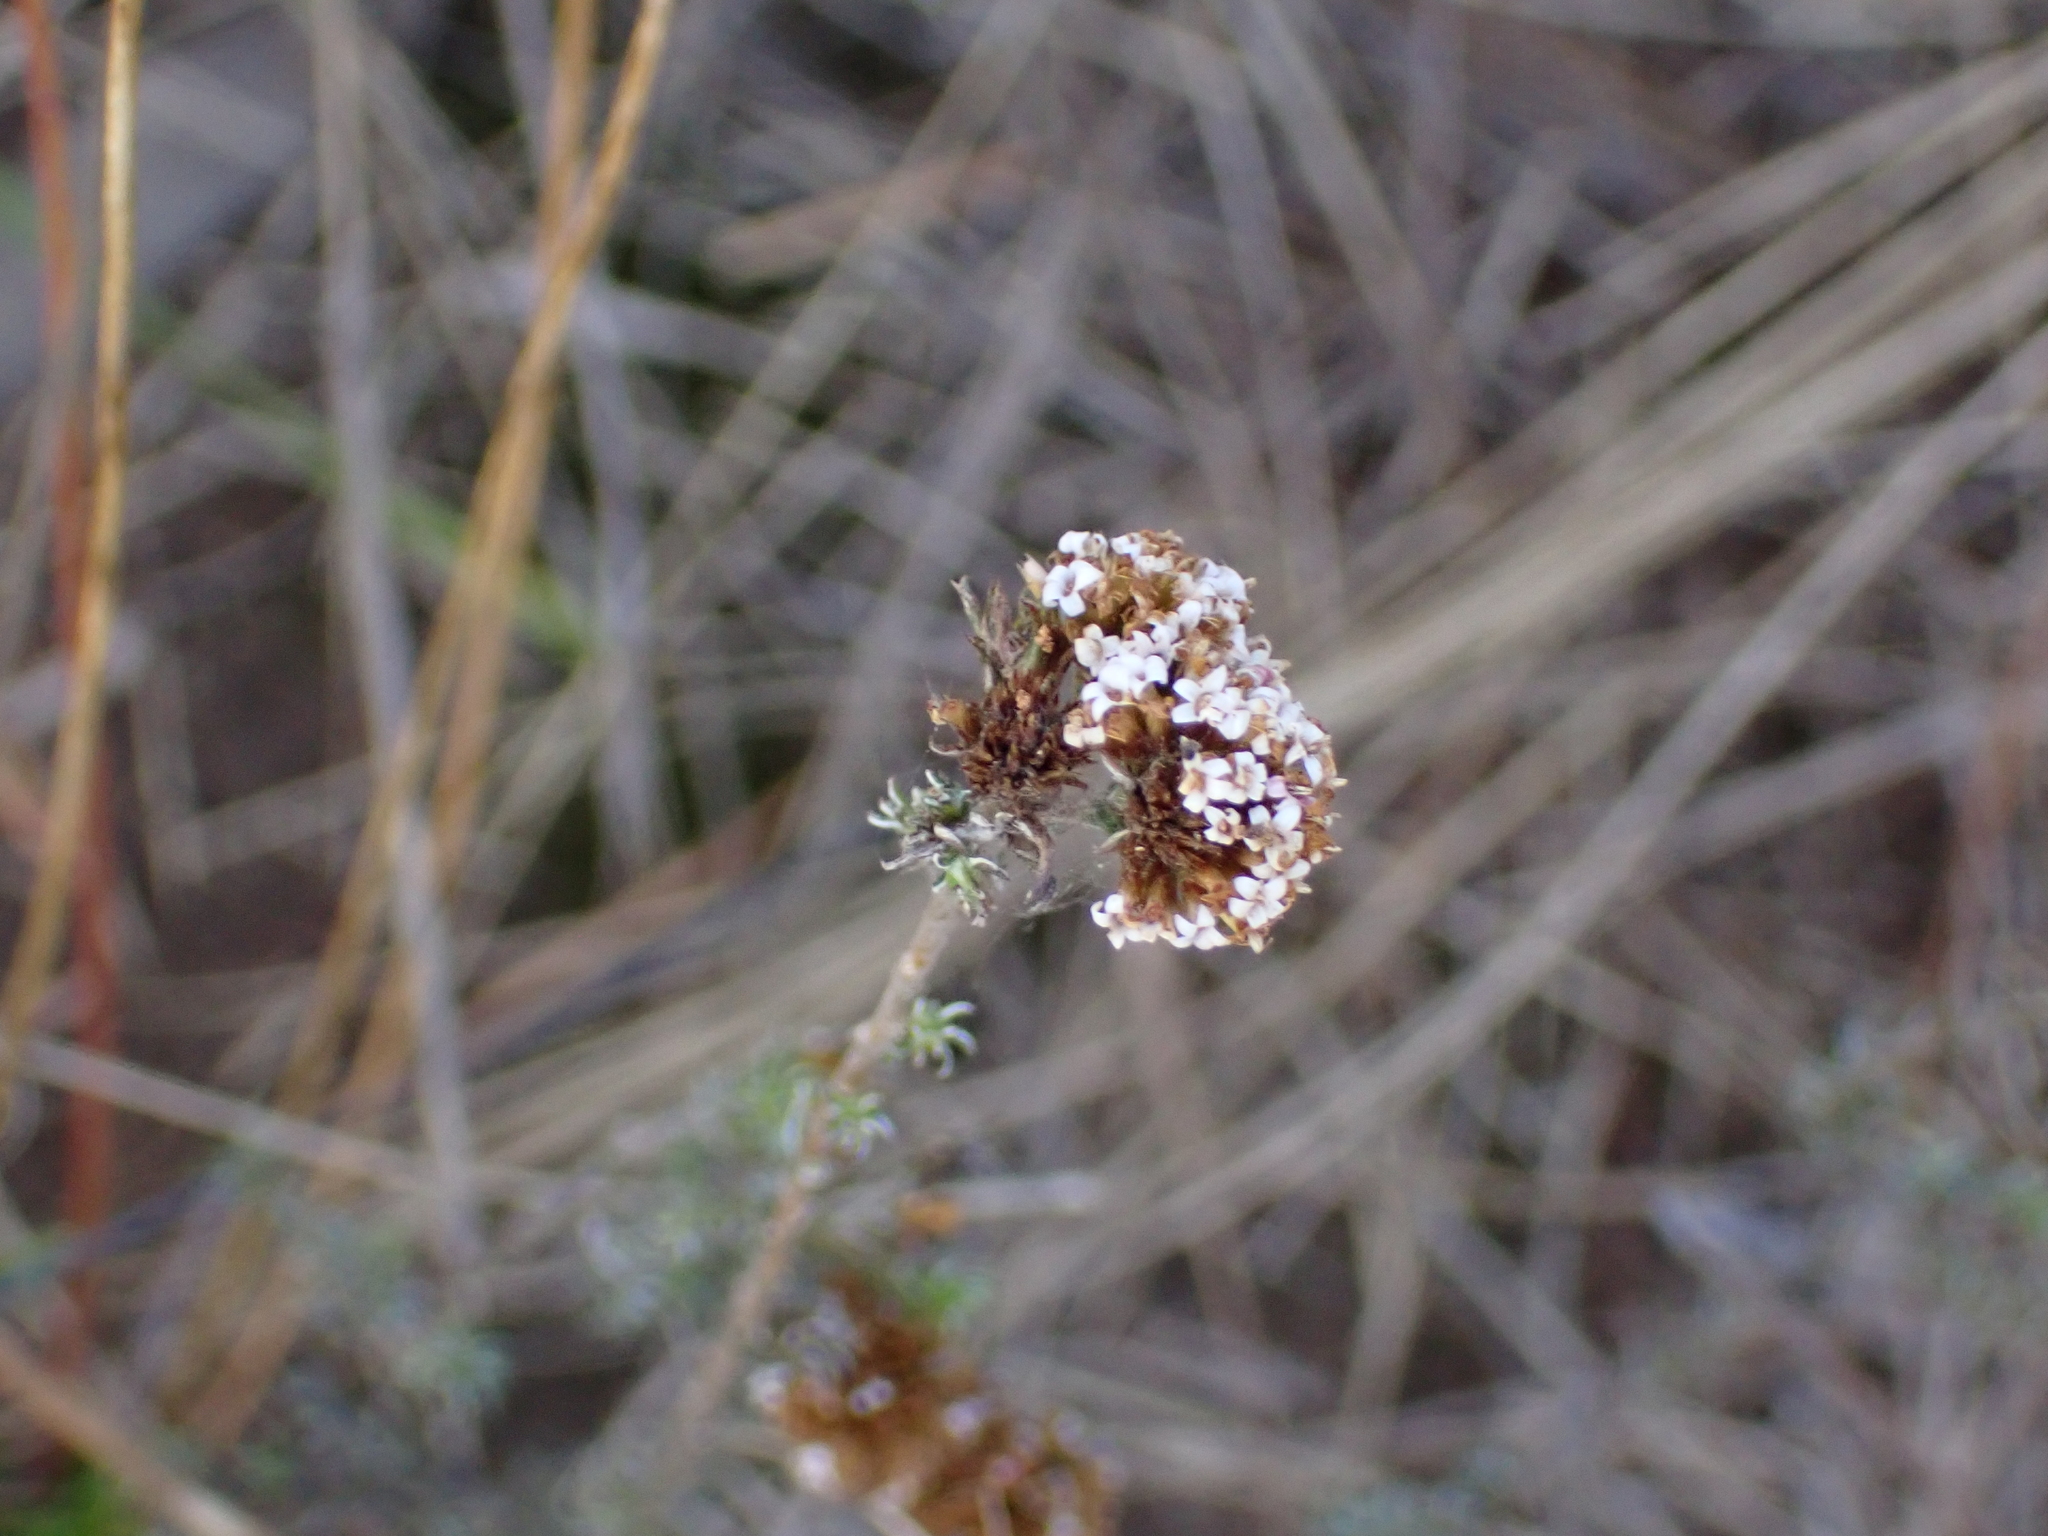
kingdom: Plantae
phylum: Tracheophyta
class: Magnoliopsida
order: Asterales
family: Asteraceae
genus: Stoebe
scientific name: Stoebe phyllostachya
